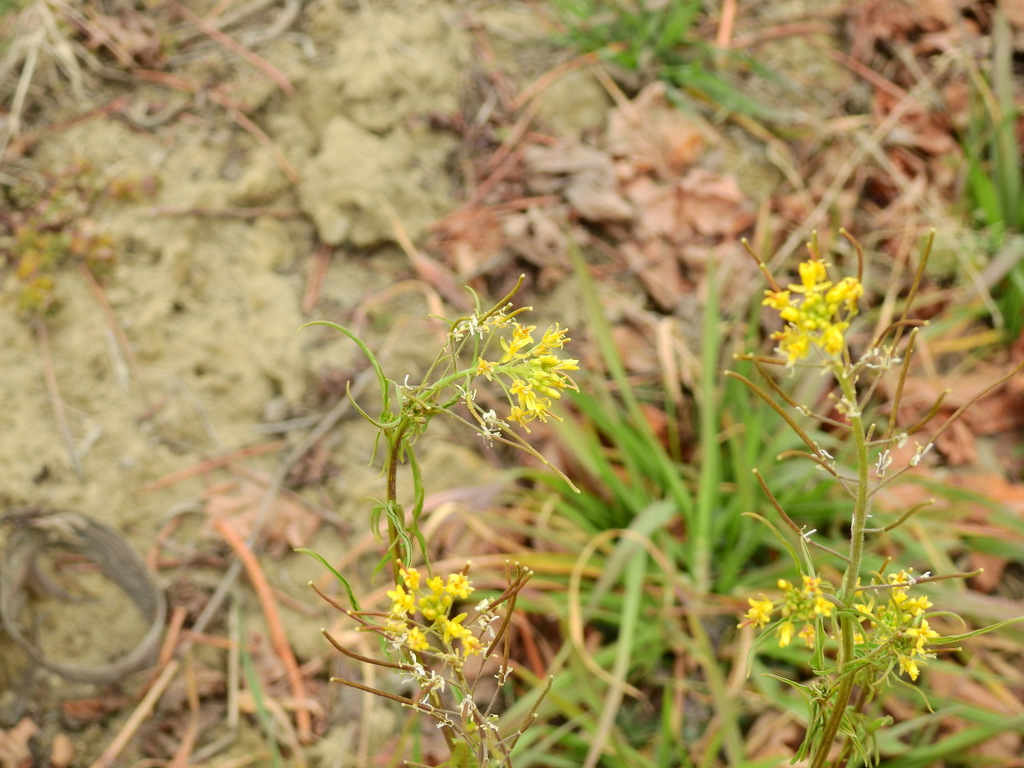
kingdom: Plantae
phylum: Tracheophyta
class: Magnoliopsida
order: Brassicales
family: Brassicaceae
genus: Sisymbrium
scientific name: Sisymbrium irio
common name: London rocket
